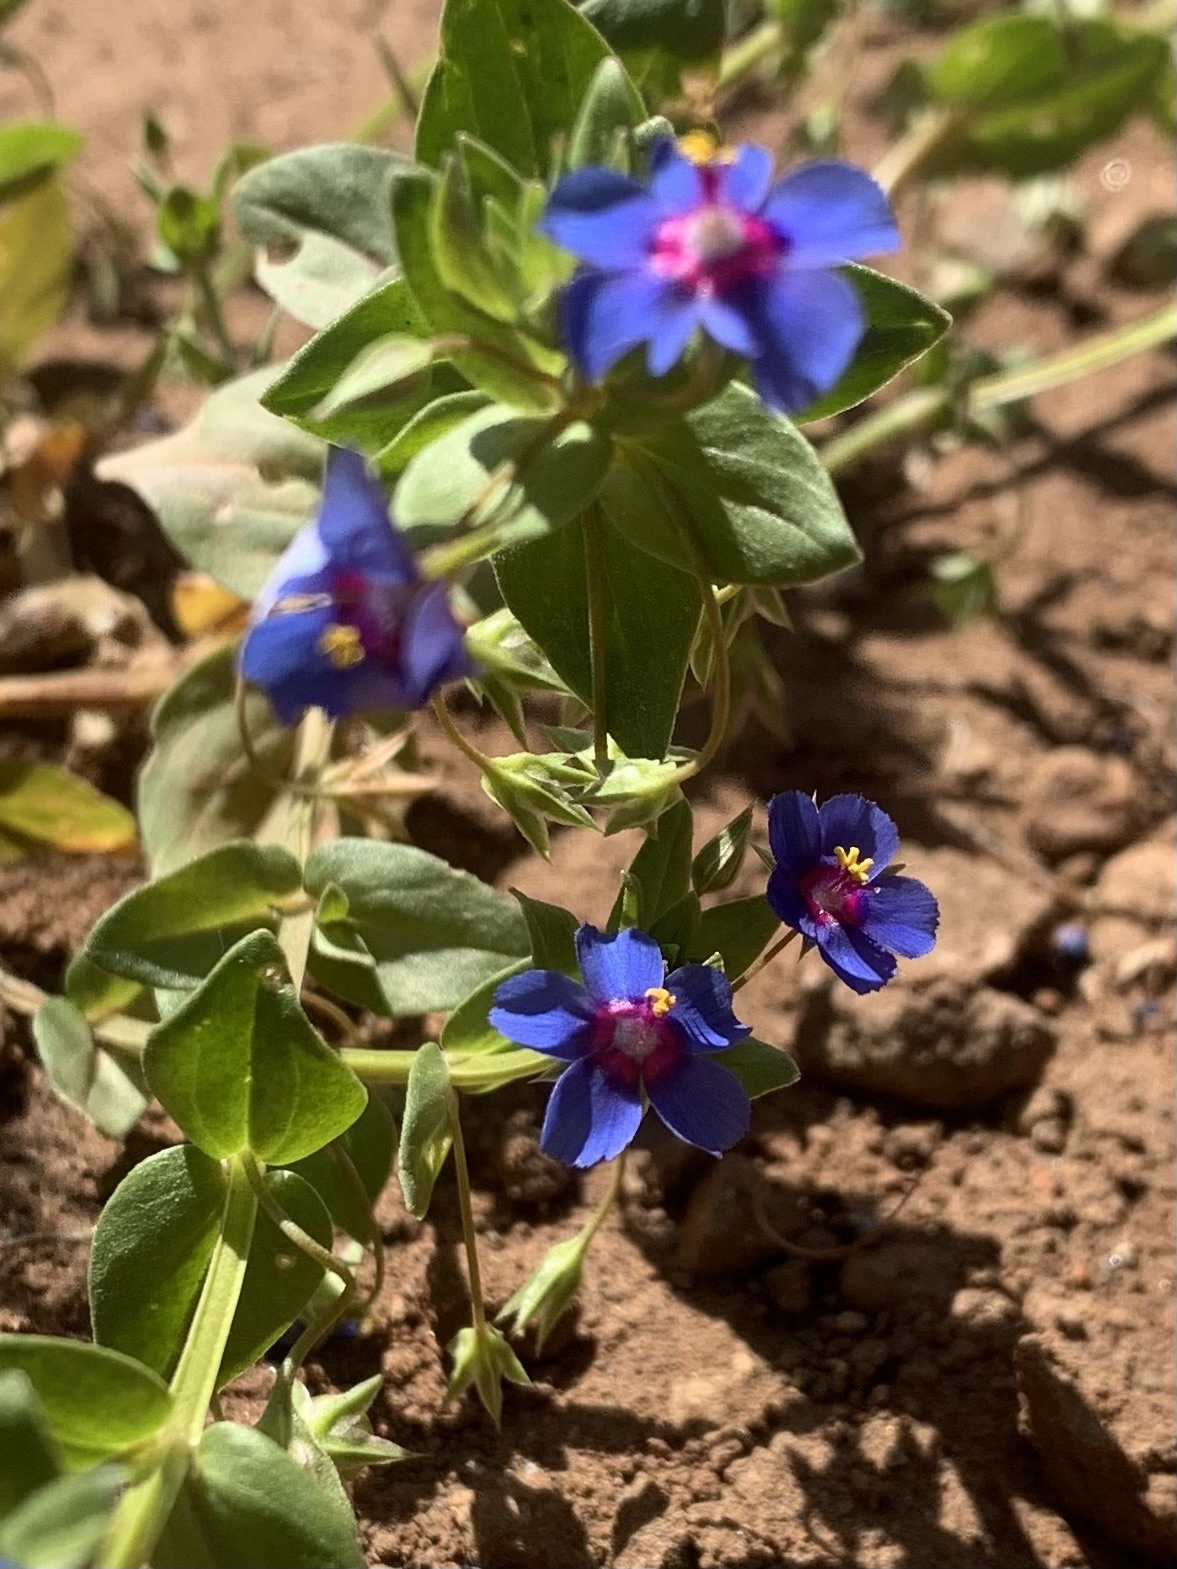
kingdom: Plantae
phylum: Tracheophyta
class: Magnoliopsida
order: Ericales
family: Primulaceae
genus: Lysimachia
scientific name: Lysimachia loeflingii
